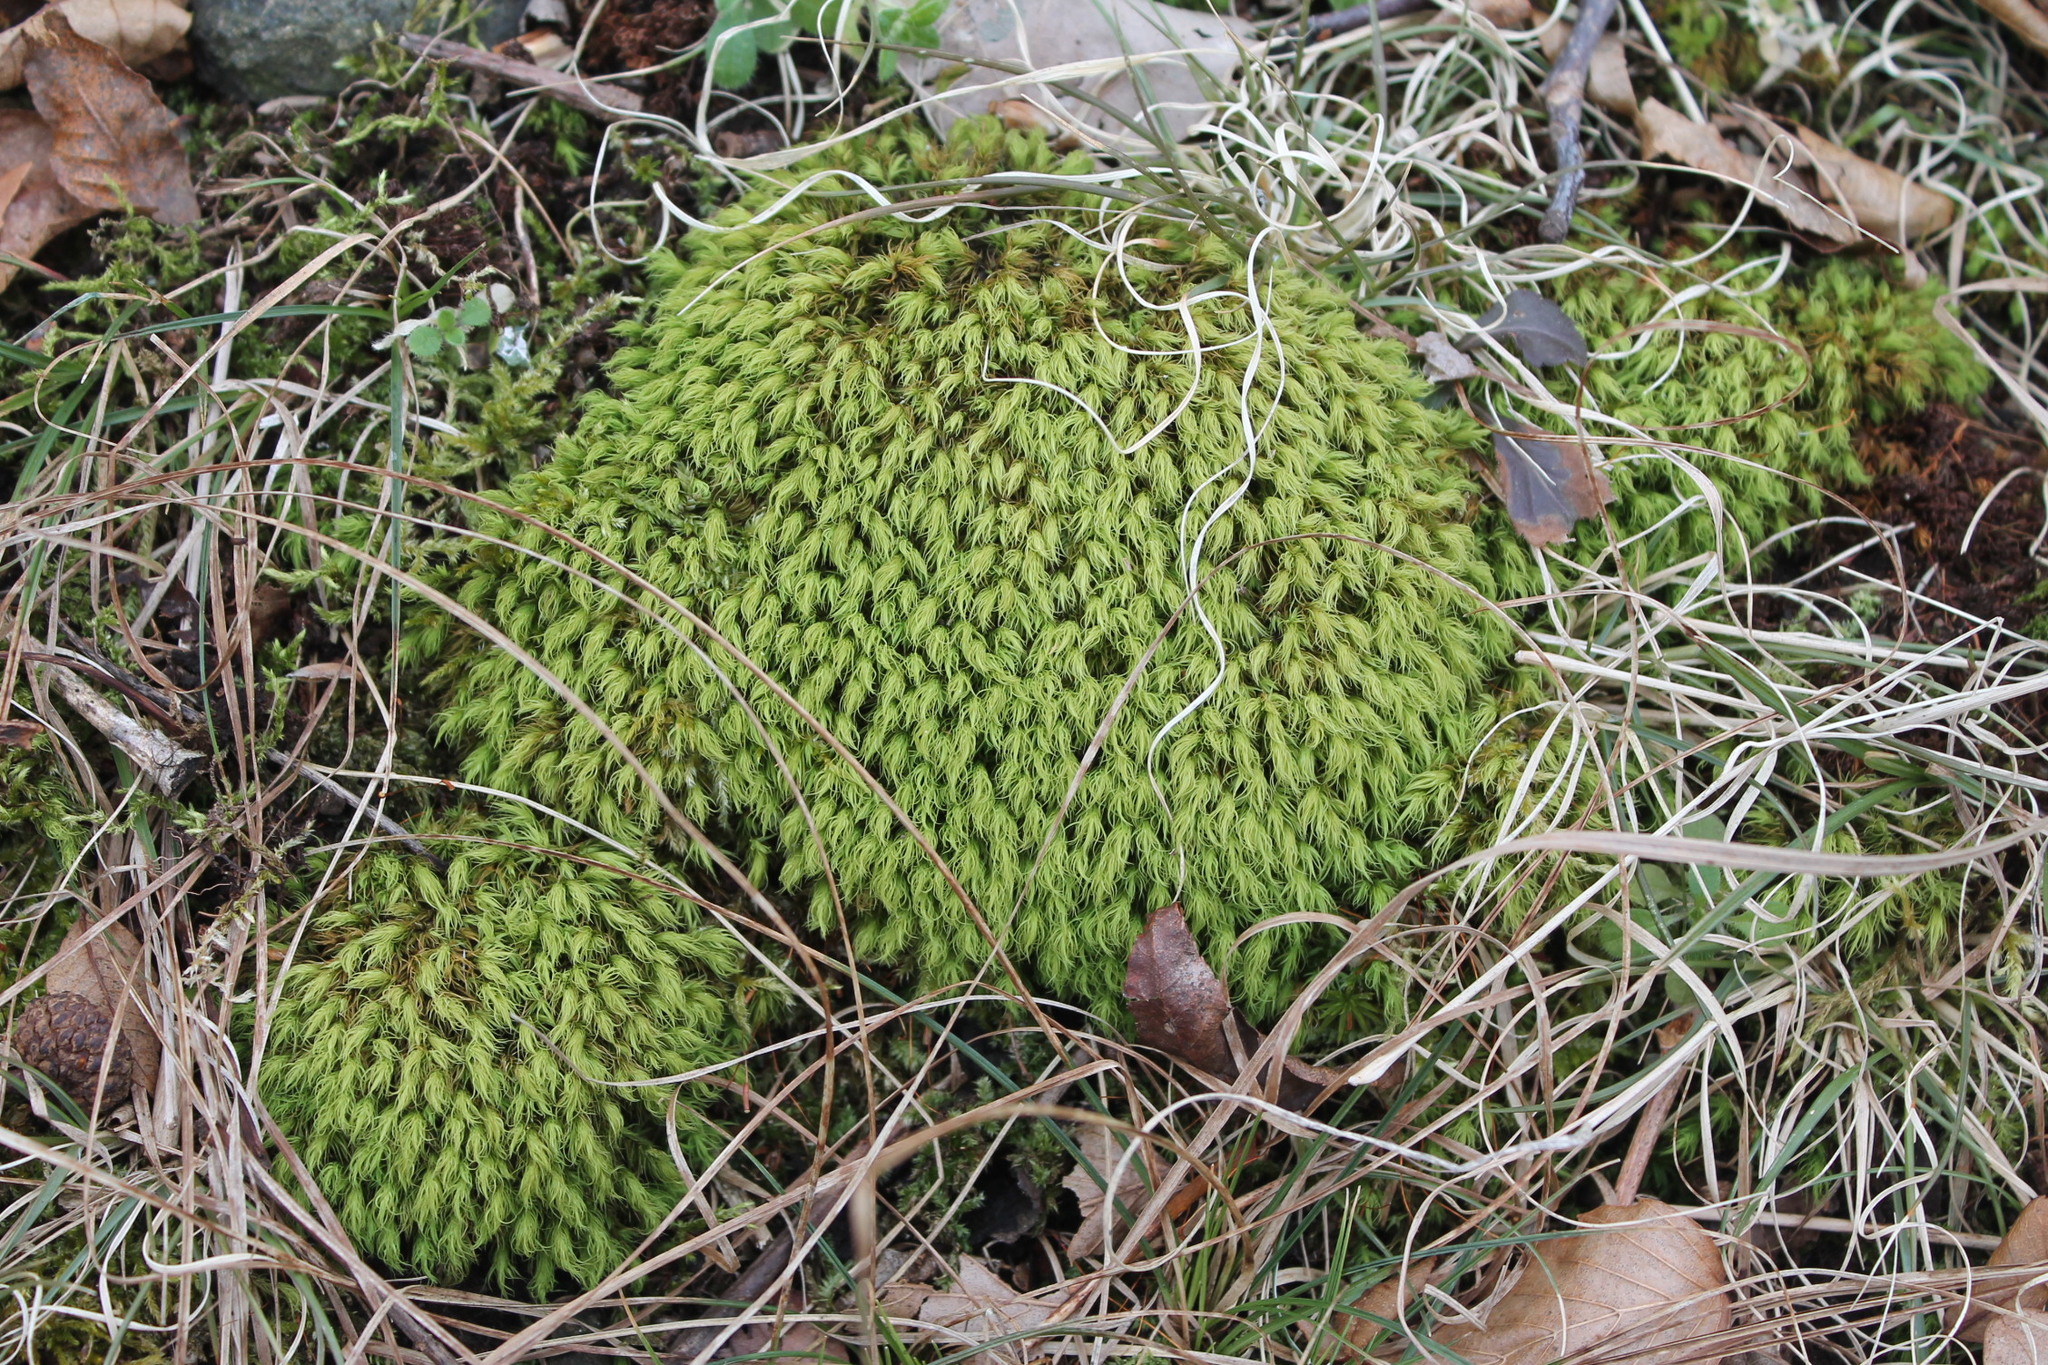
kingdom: Plantae
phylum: Bryophyta
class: Bryopsida
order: Bartramiales
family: Bartramiaceae
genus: Bartramia
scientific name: Bartramia ithyphylla
